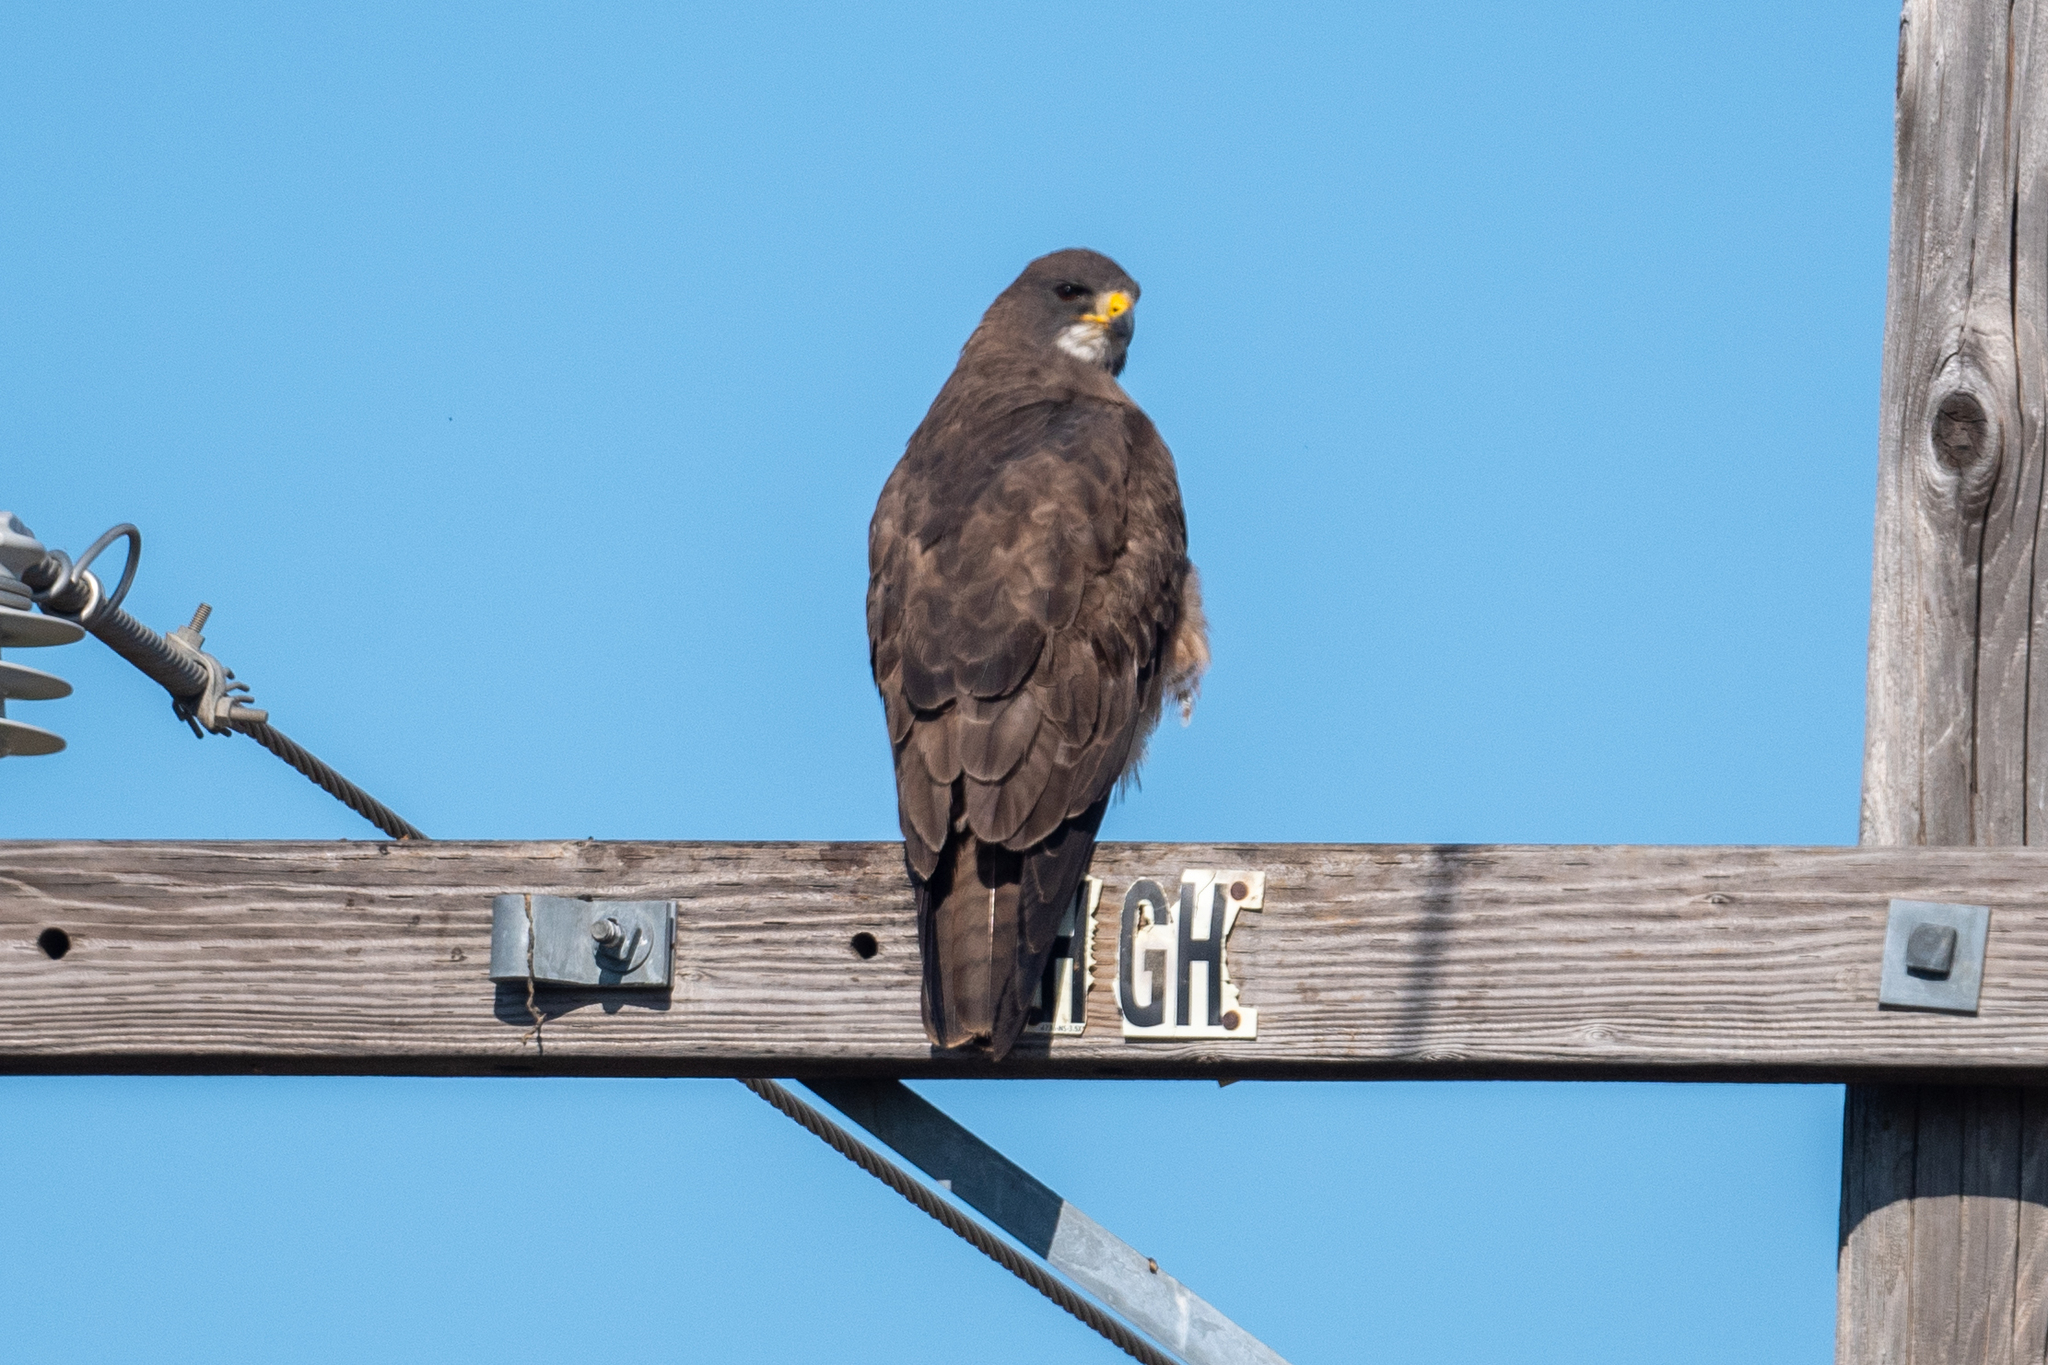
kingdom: Animalia
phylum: Chordata
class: Aves
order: Accipitriformes
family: Accipitridae
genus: Buteo
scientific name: Buteo swainsoni
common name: Swainson's hawk
